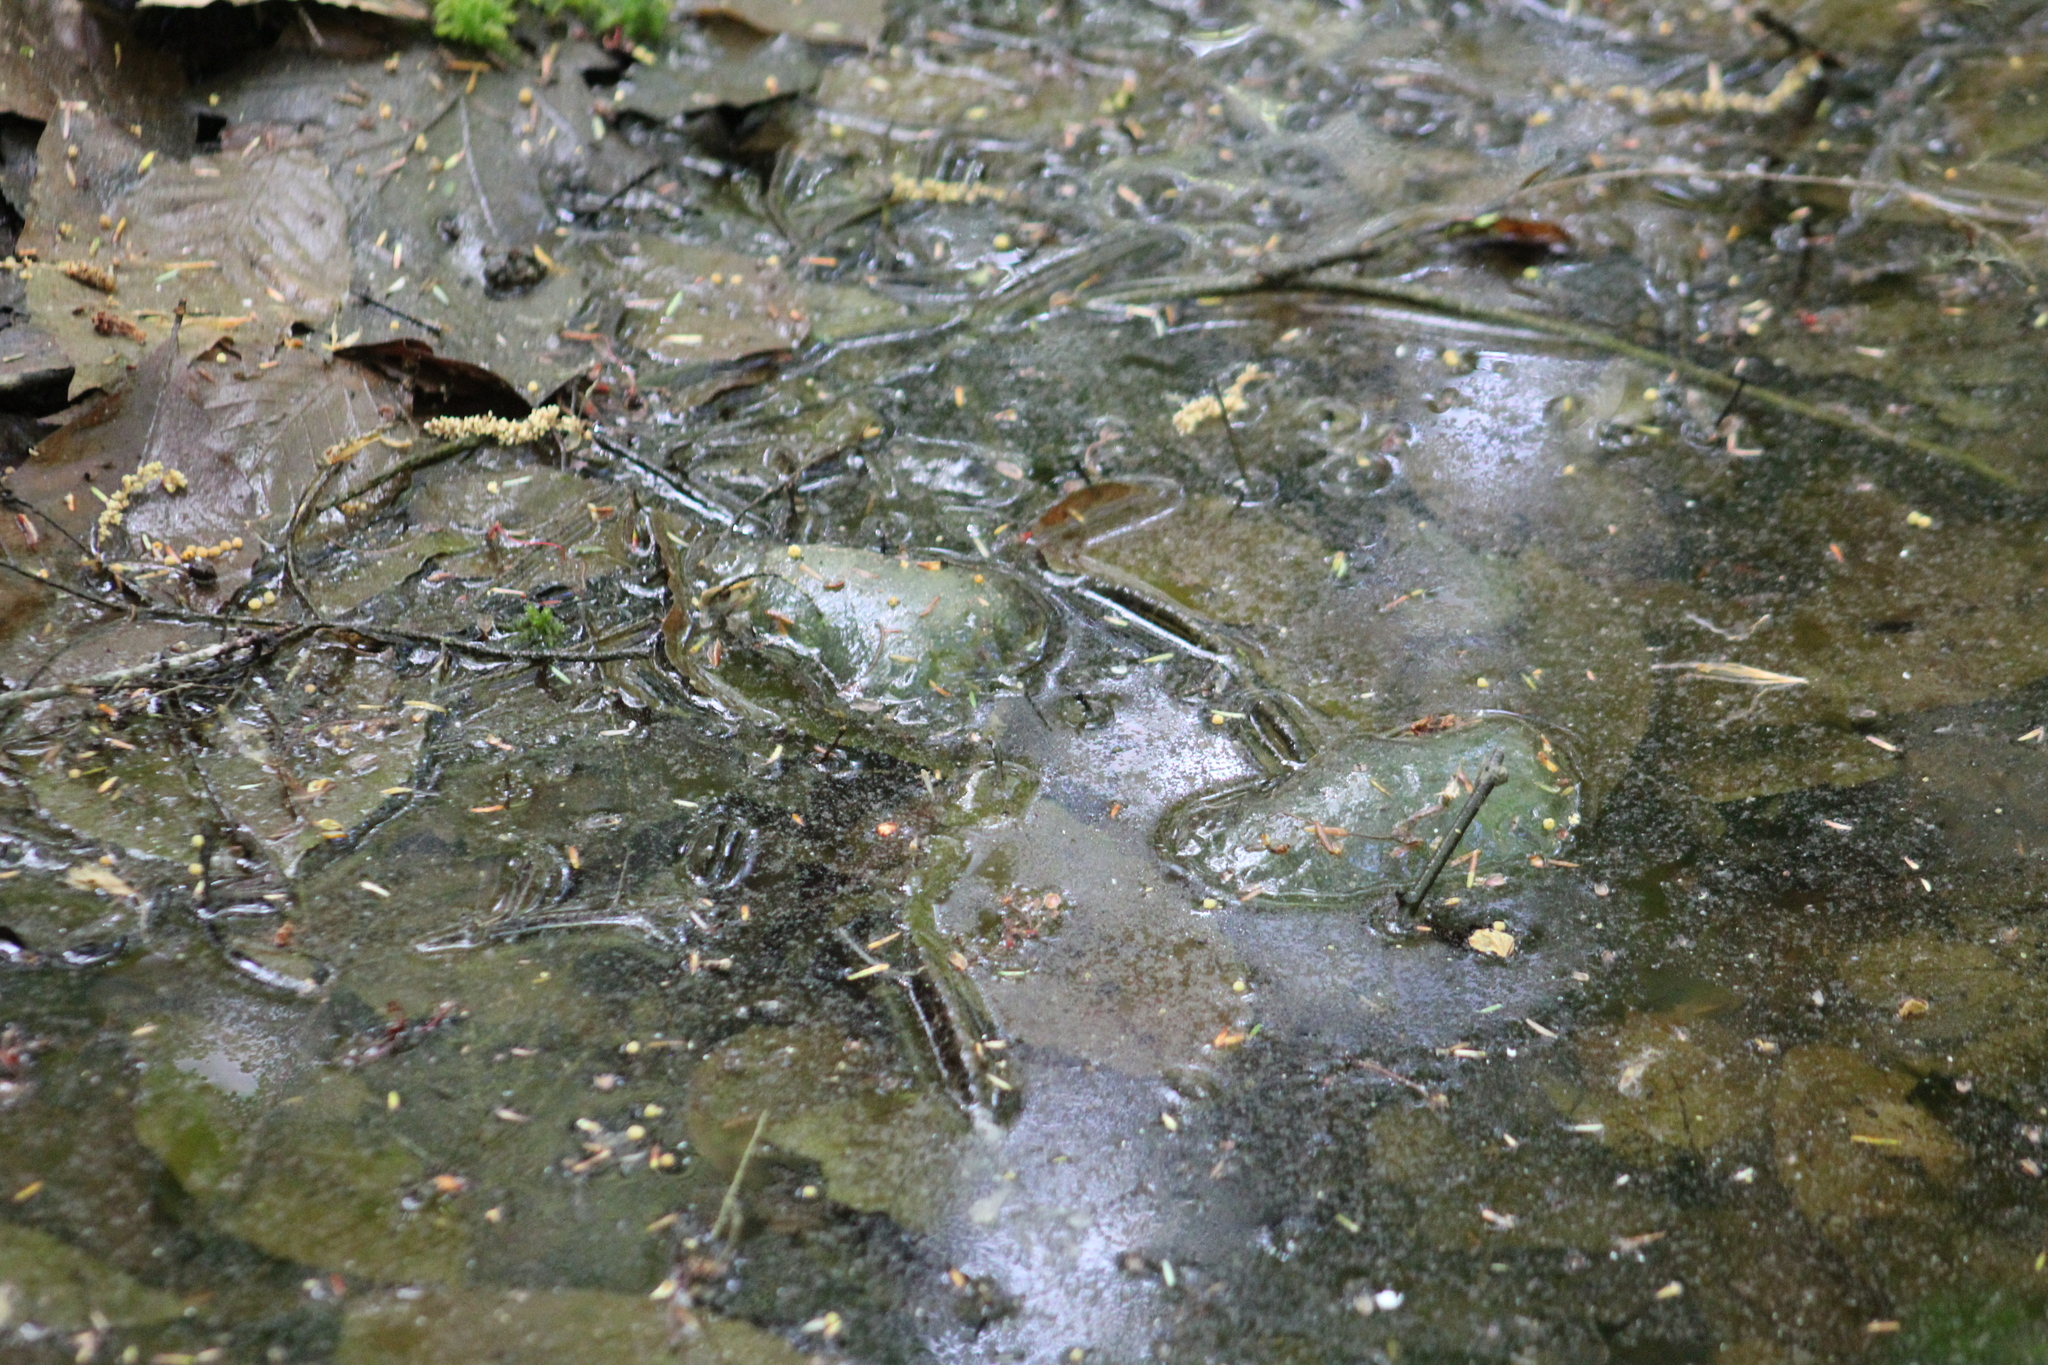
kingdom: Animalia
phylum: Chordata
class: Amphibia
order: Caudata
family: Ambystomatidae
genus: Ambystoma
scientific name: Ambystoma maculatum
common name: Spotted salamander
